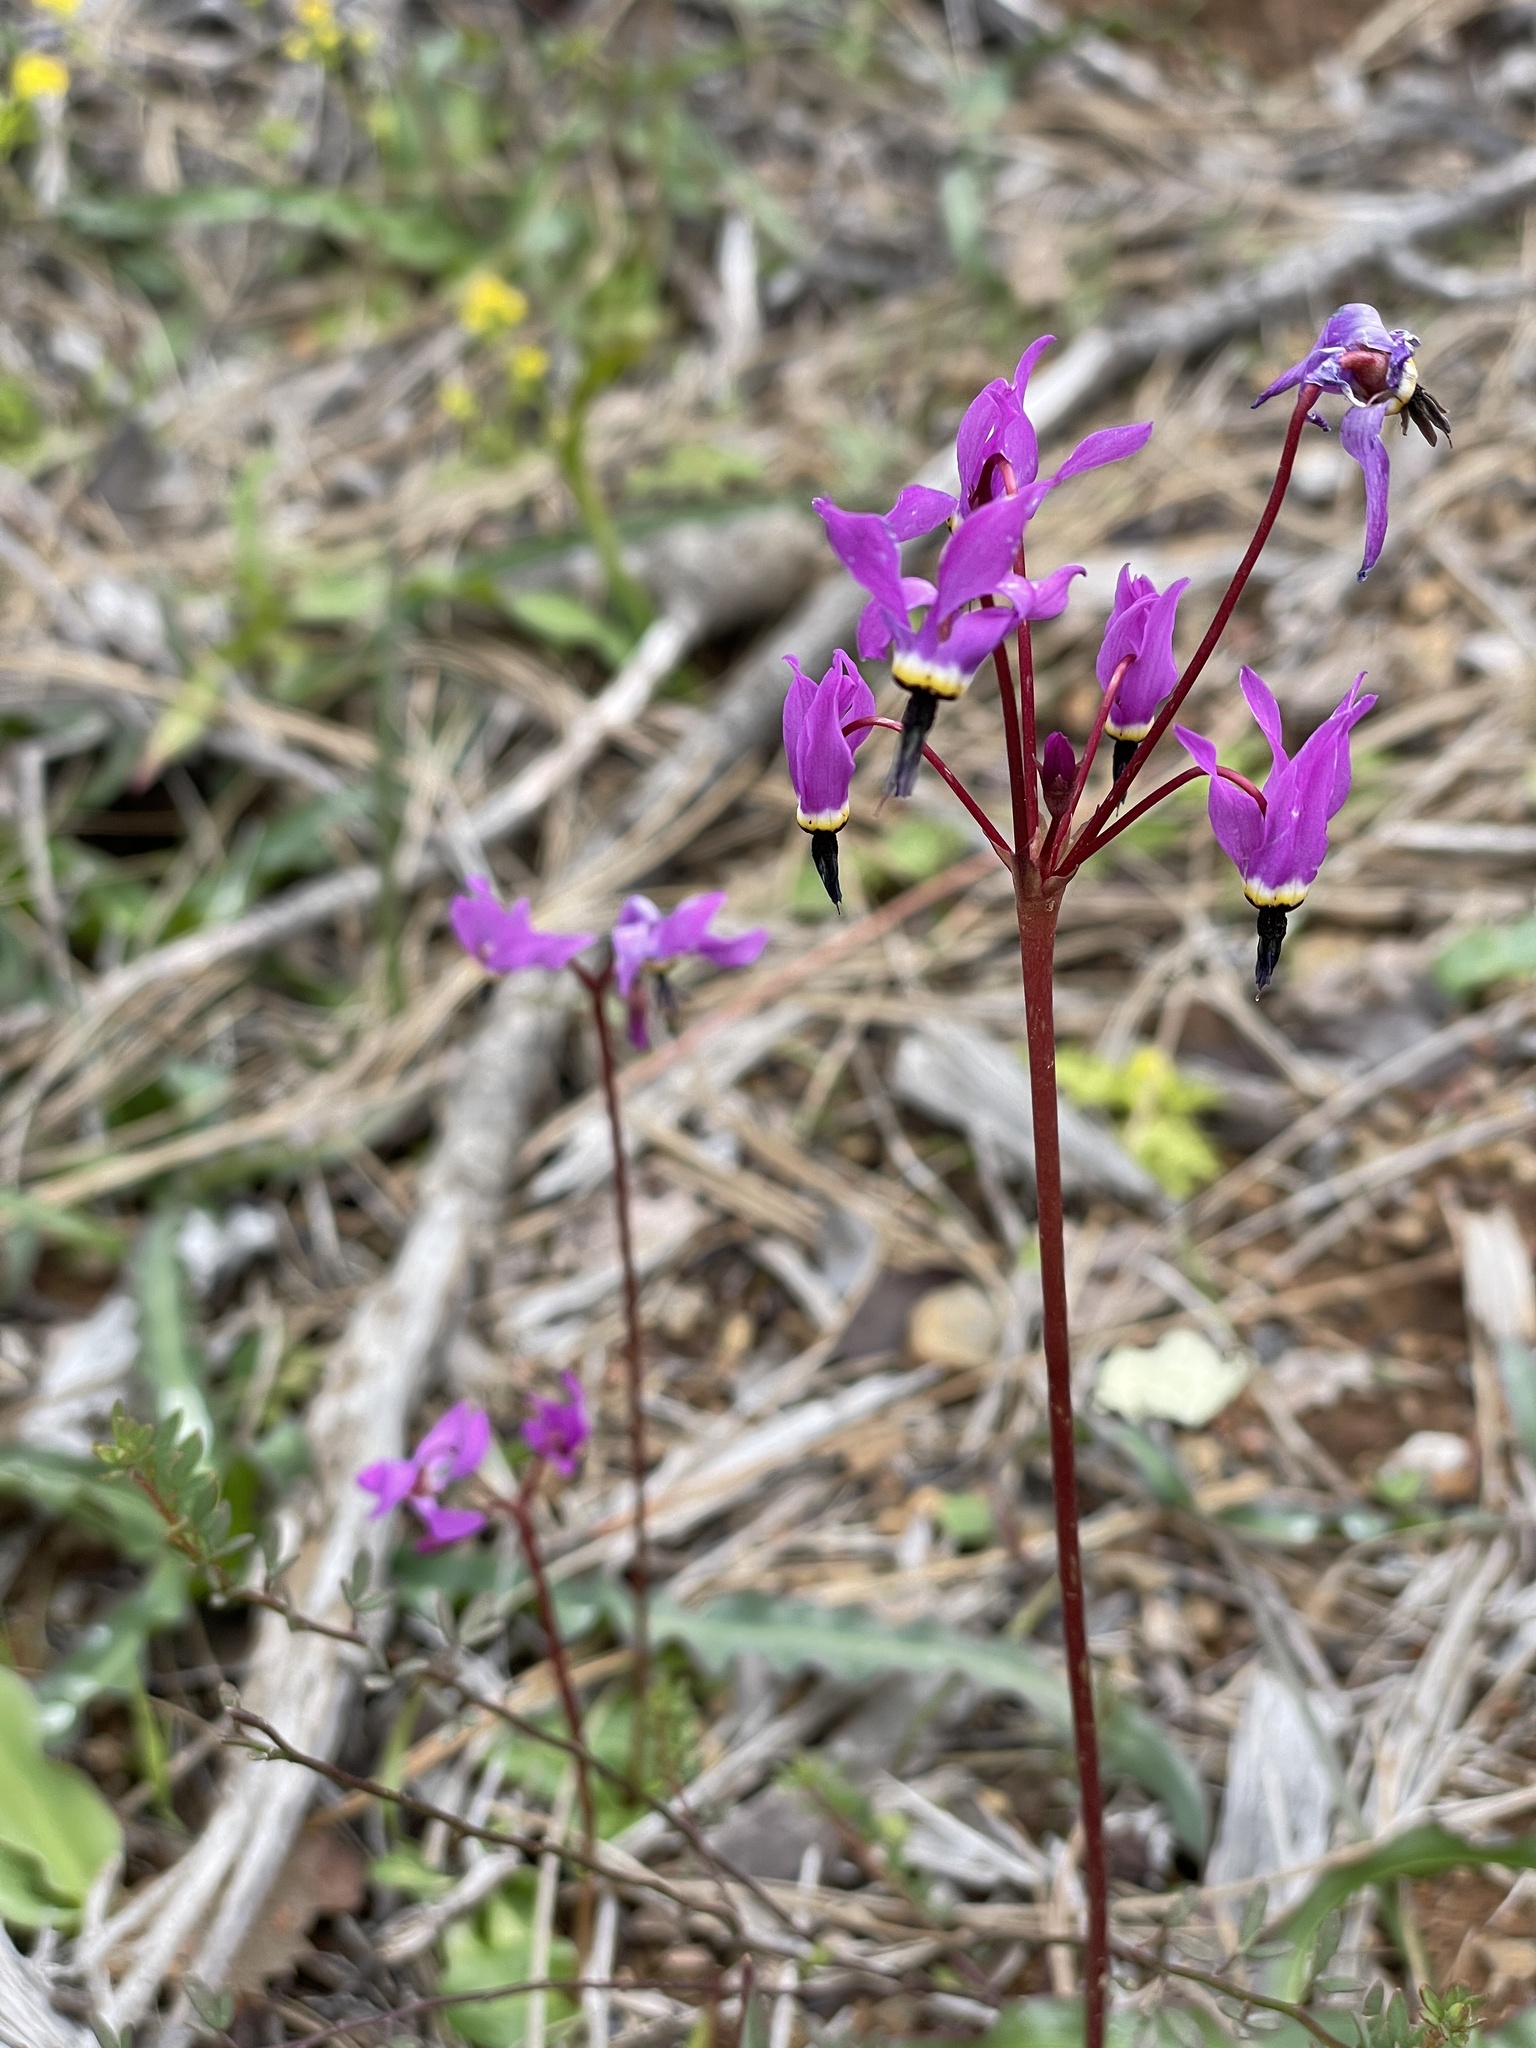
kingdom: Plantae
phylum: Tracheophyta
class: Magnoliopsida
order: Ericales
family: Primulaceae
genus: Dodecatheon
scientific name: Dodecatheon hendersonii
